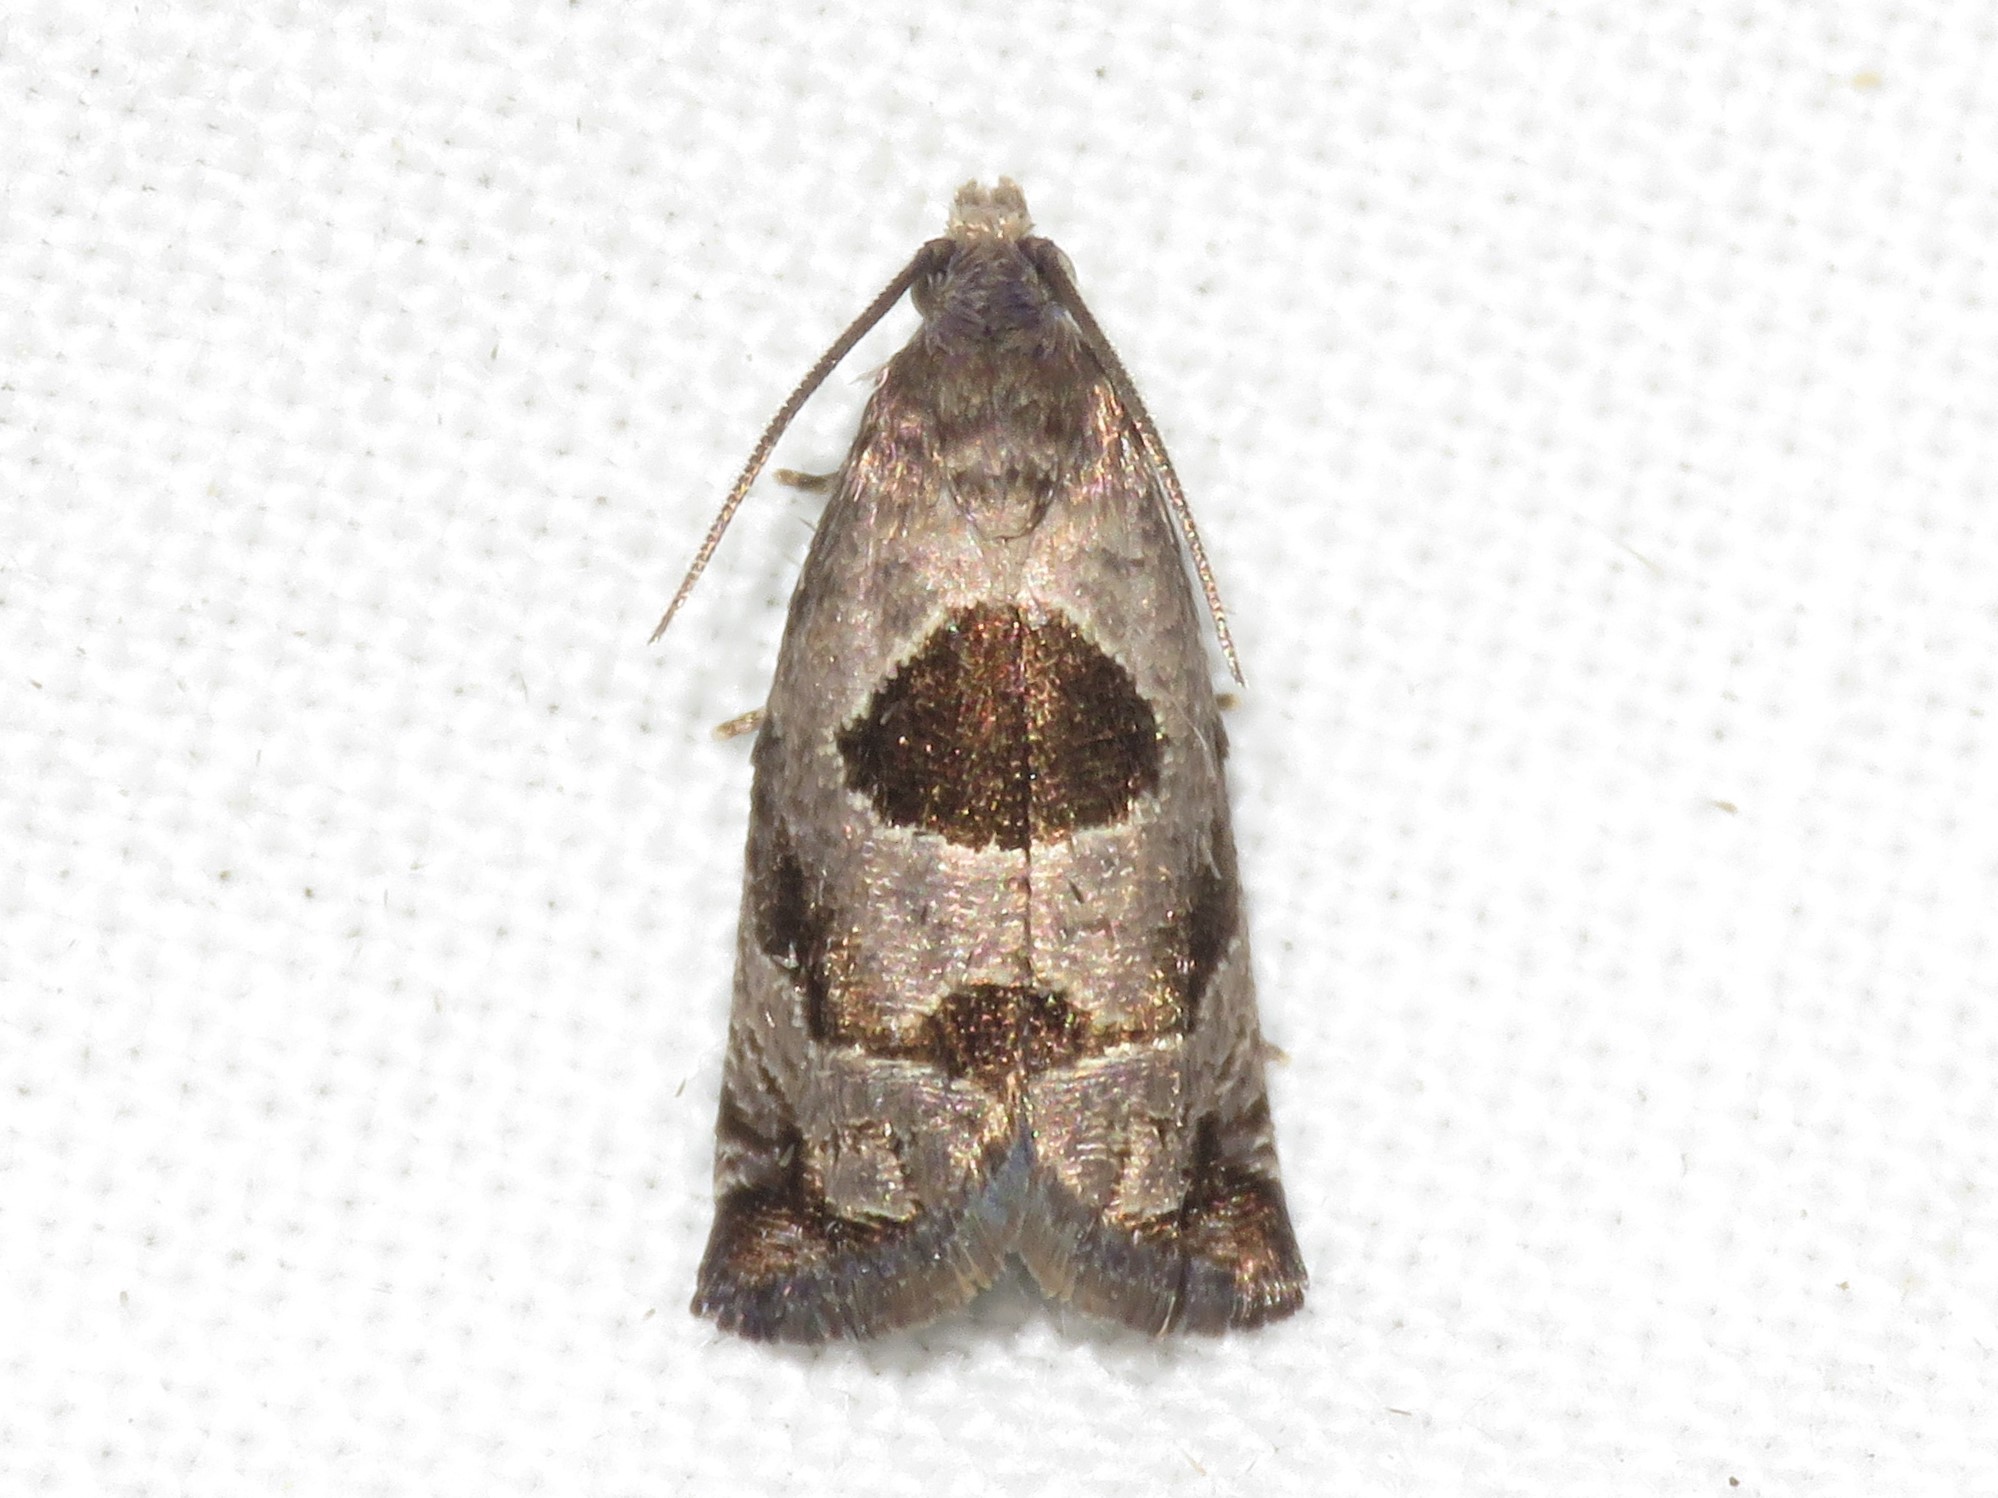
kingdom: Animalia
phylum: Arthropoda
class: Insecta
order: Lepidoptera
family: Tortricidae
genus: Epiblema
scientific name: Epiblema brightonana
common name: Brighton's epiblema moth
